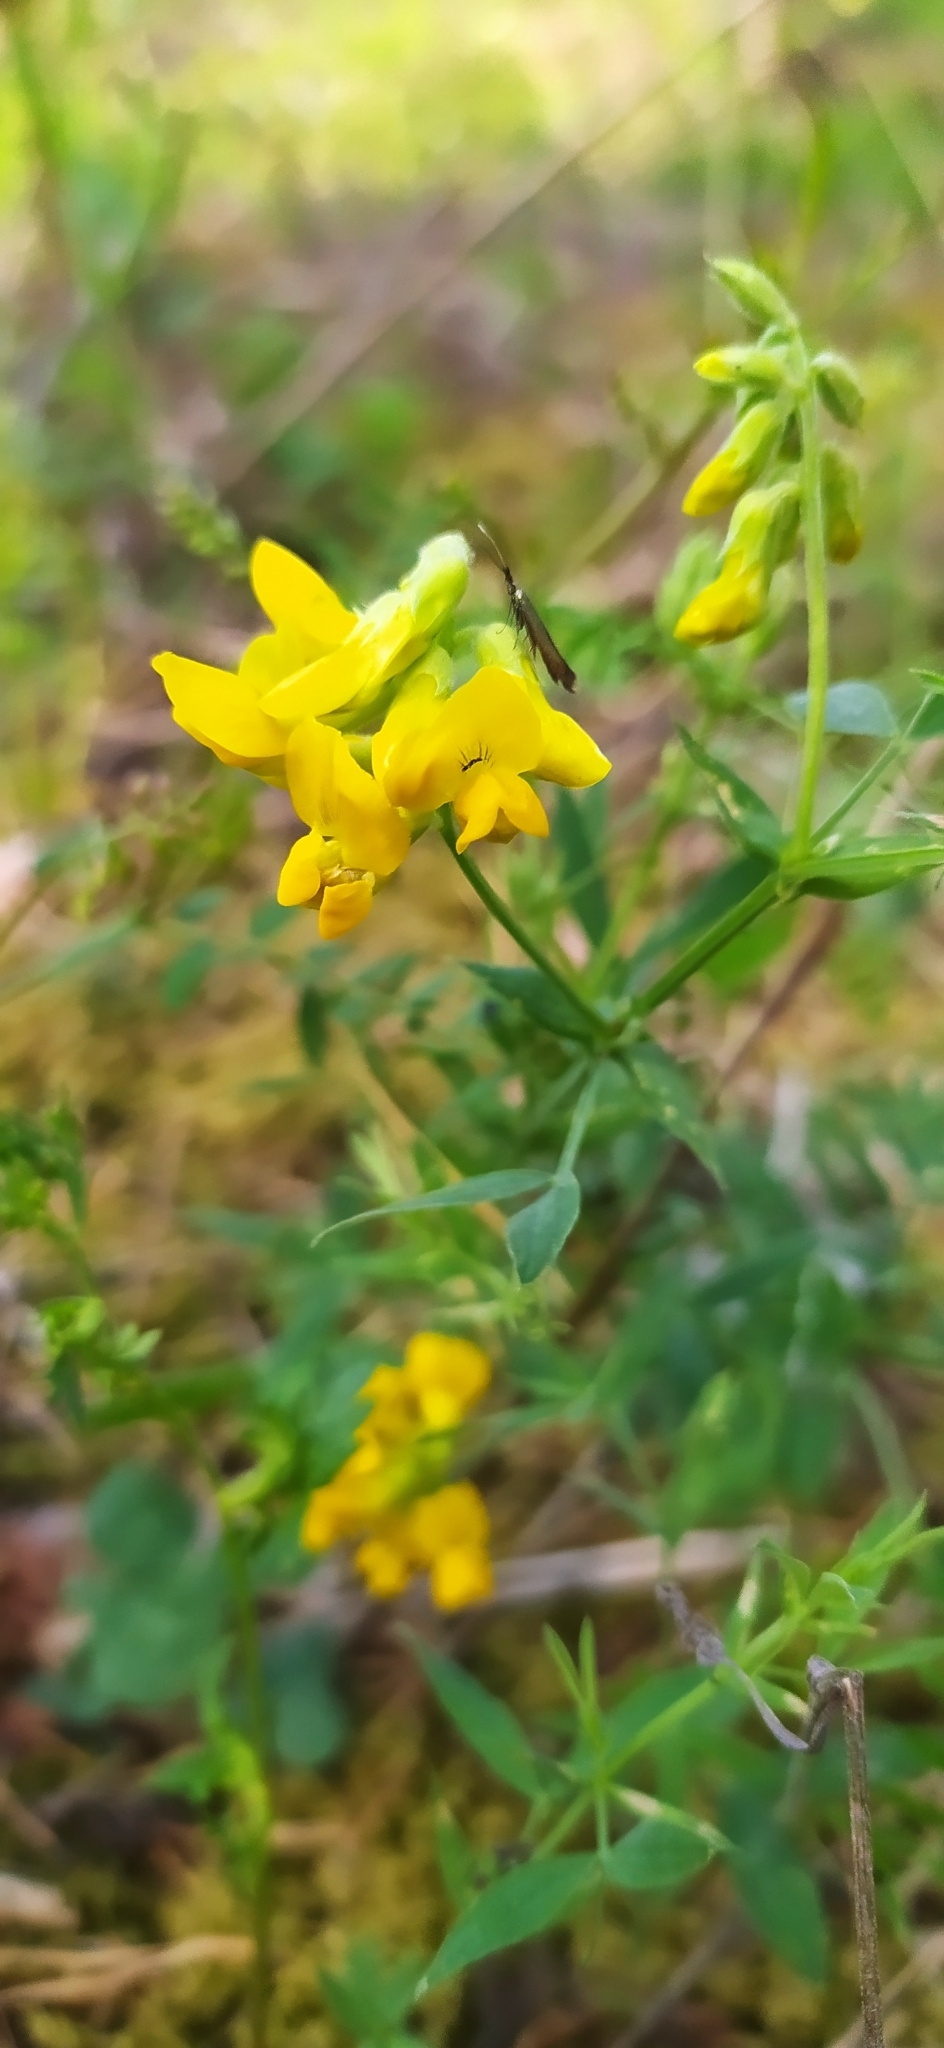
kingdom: Plantae
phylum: Tracheophyta
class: Magnoliopsida
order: Fabales
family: Fabaceae
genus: Lathyrus
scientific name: Lathyrus pratensis
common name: Meadow vetchling
